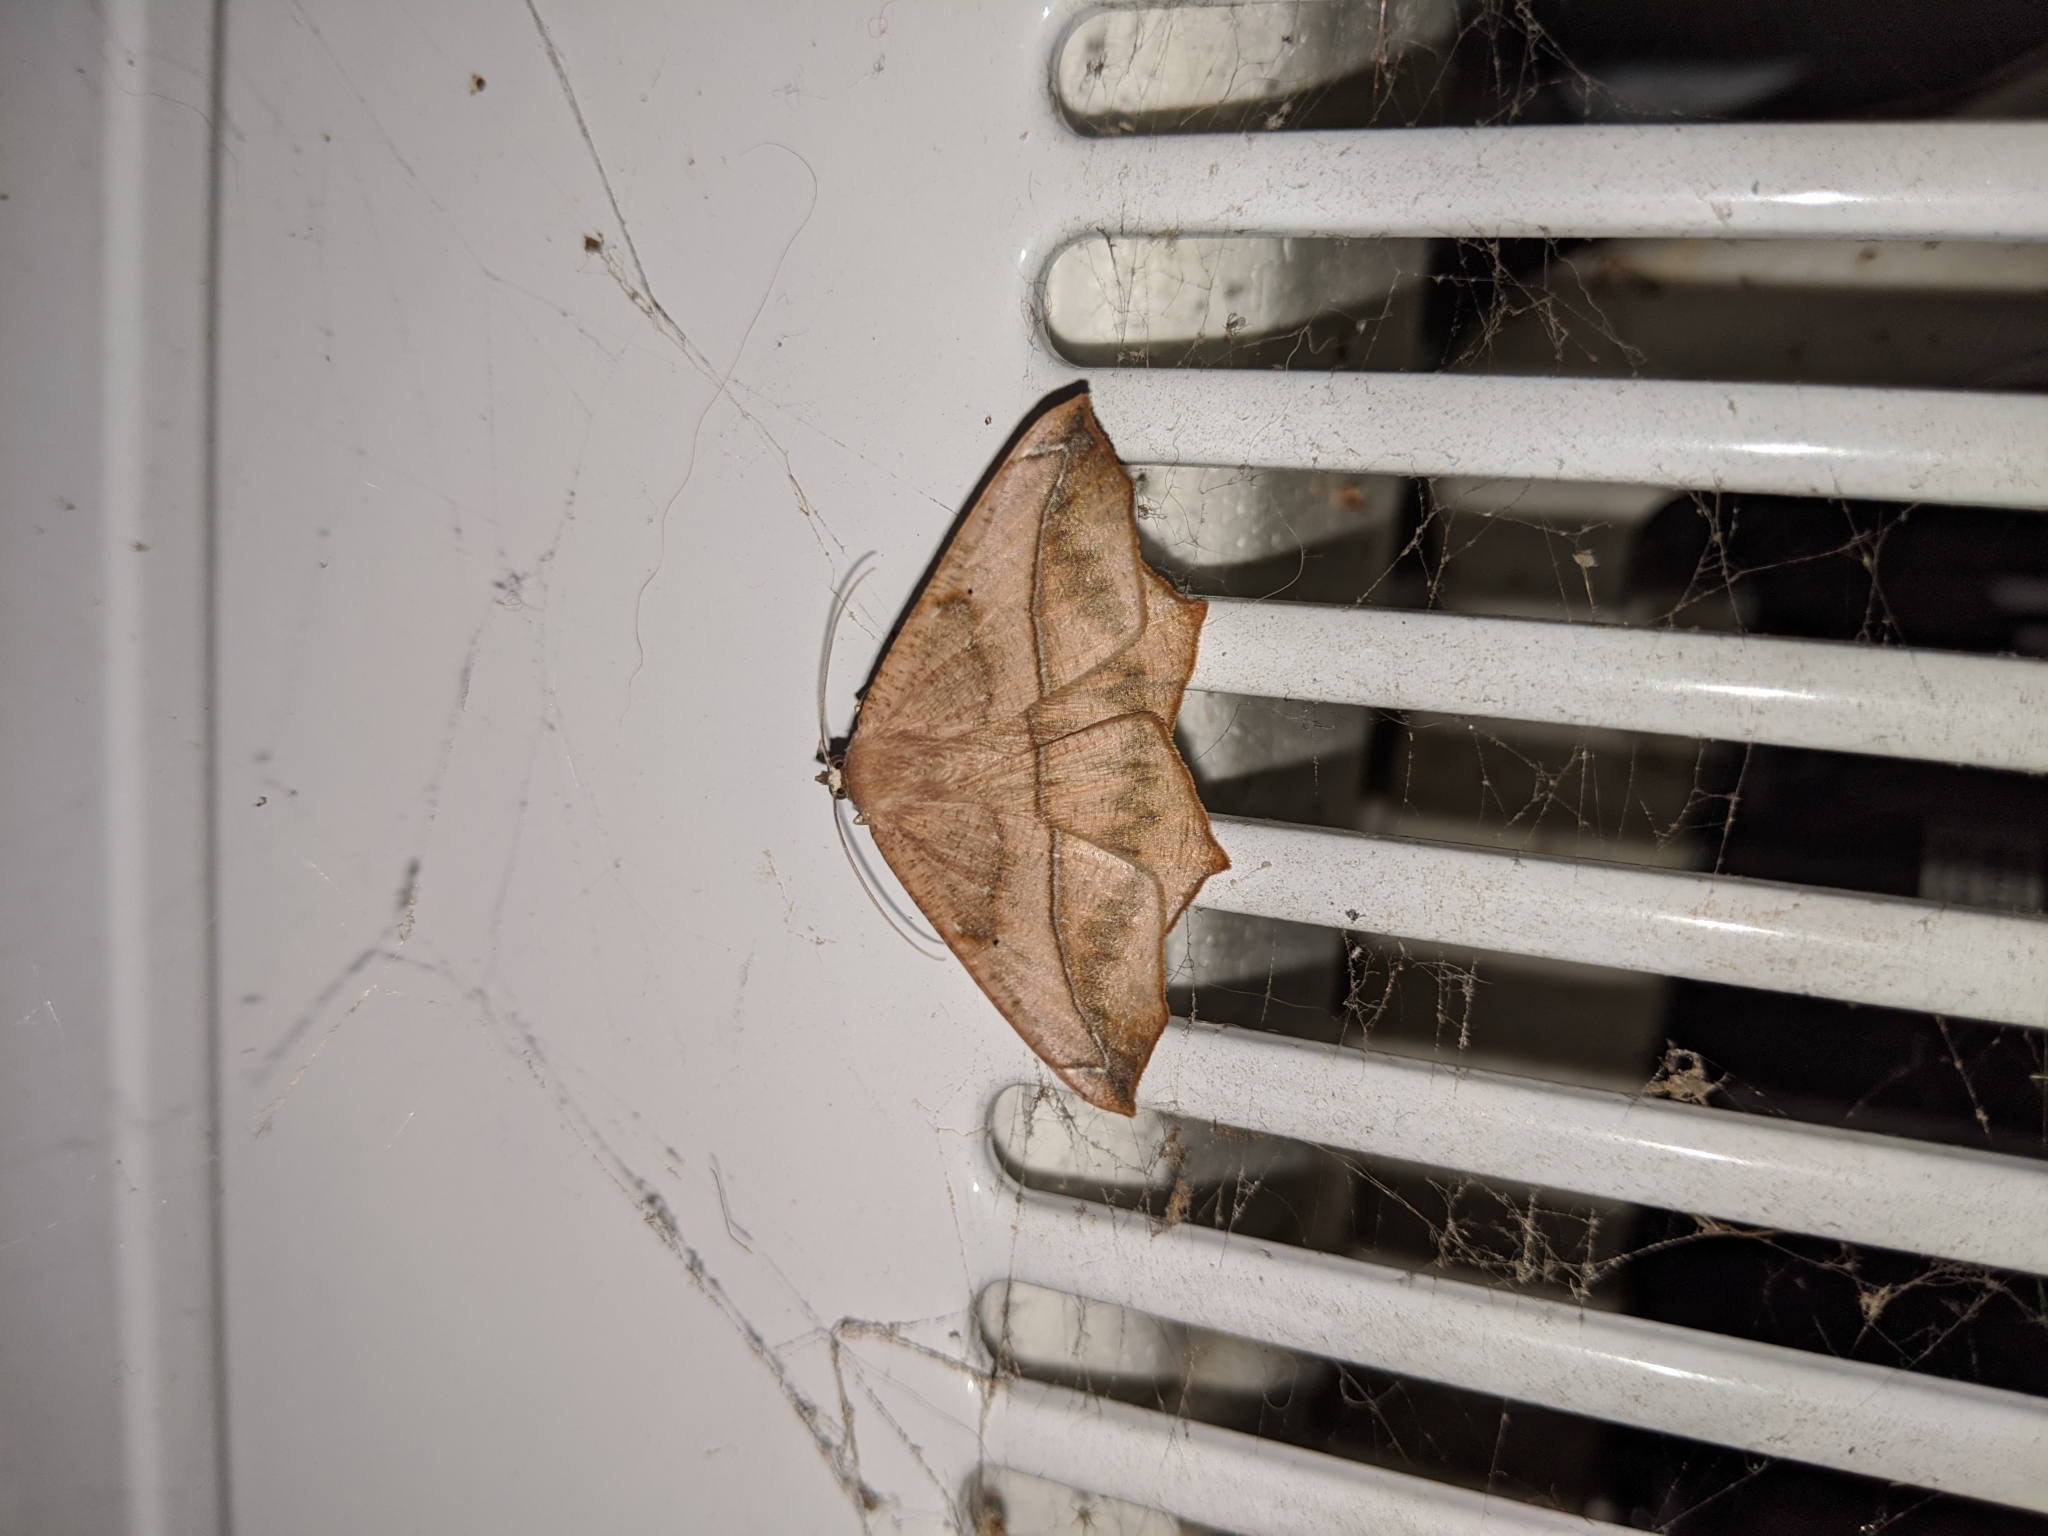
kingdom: Animalia
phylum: Arthropoda
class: Insecta
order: Lepidoptera
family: Geometridae
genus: Prochoerodes
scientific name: Prochoerodes lineola
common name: Large maple spanworm
